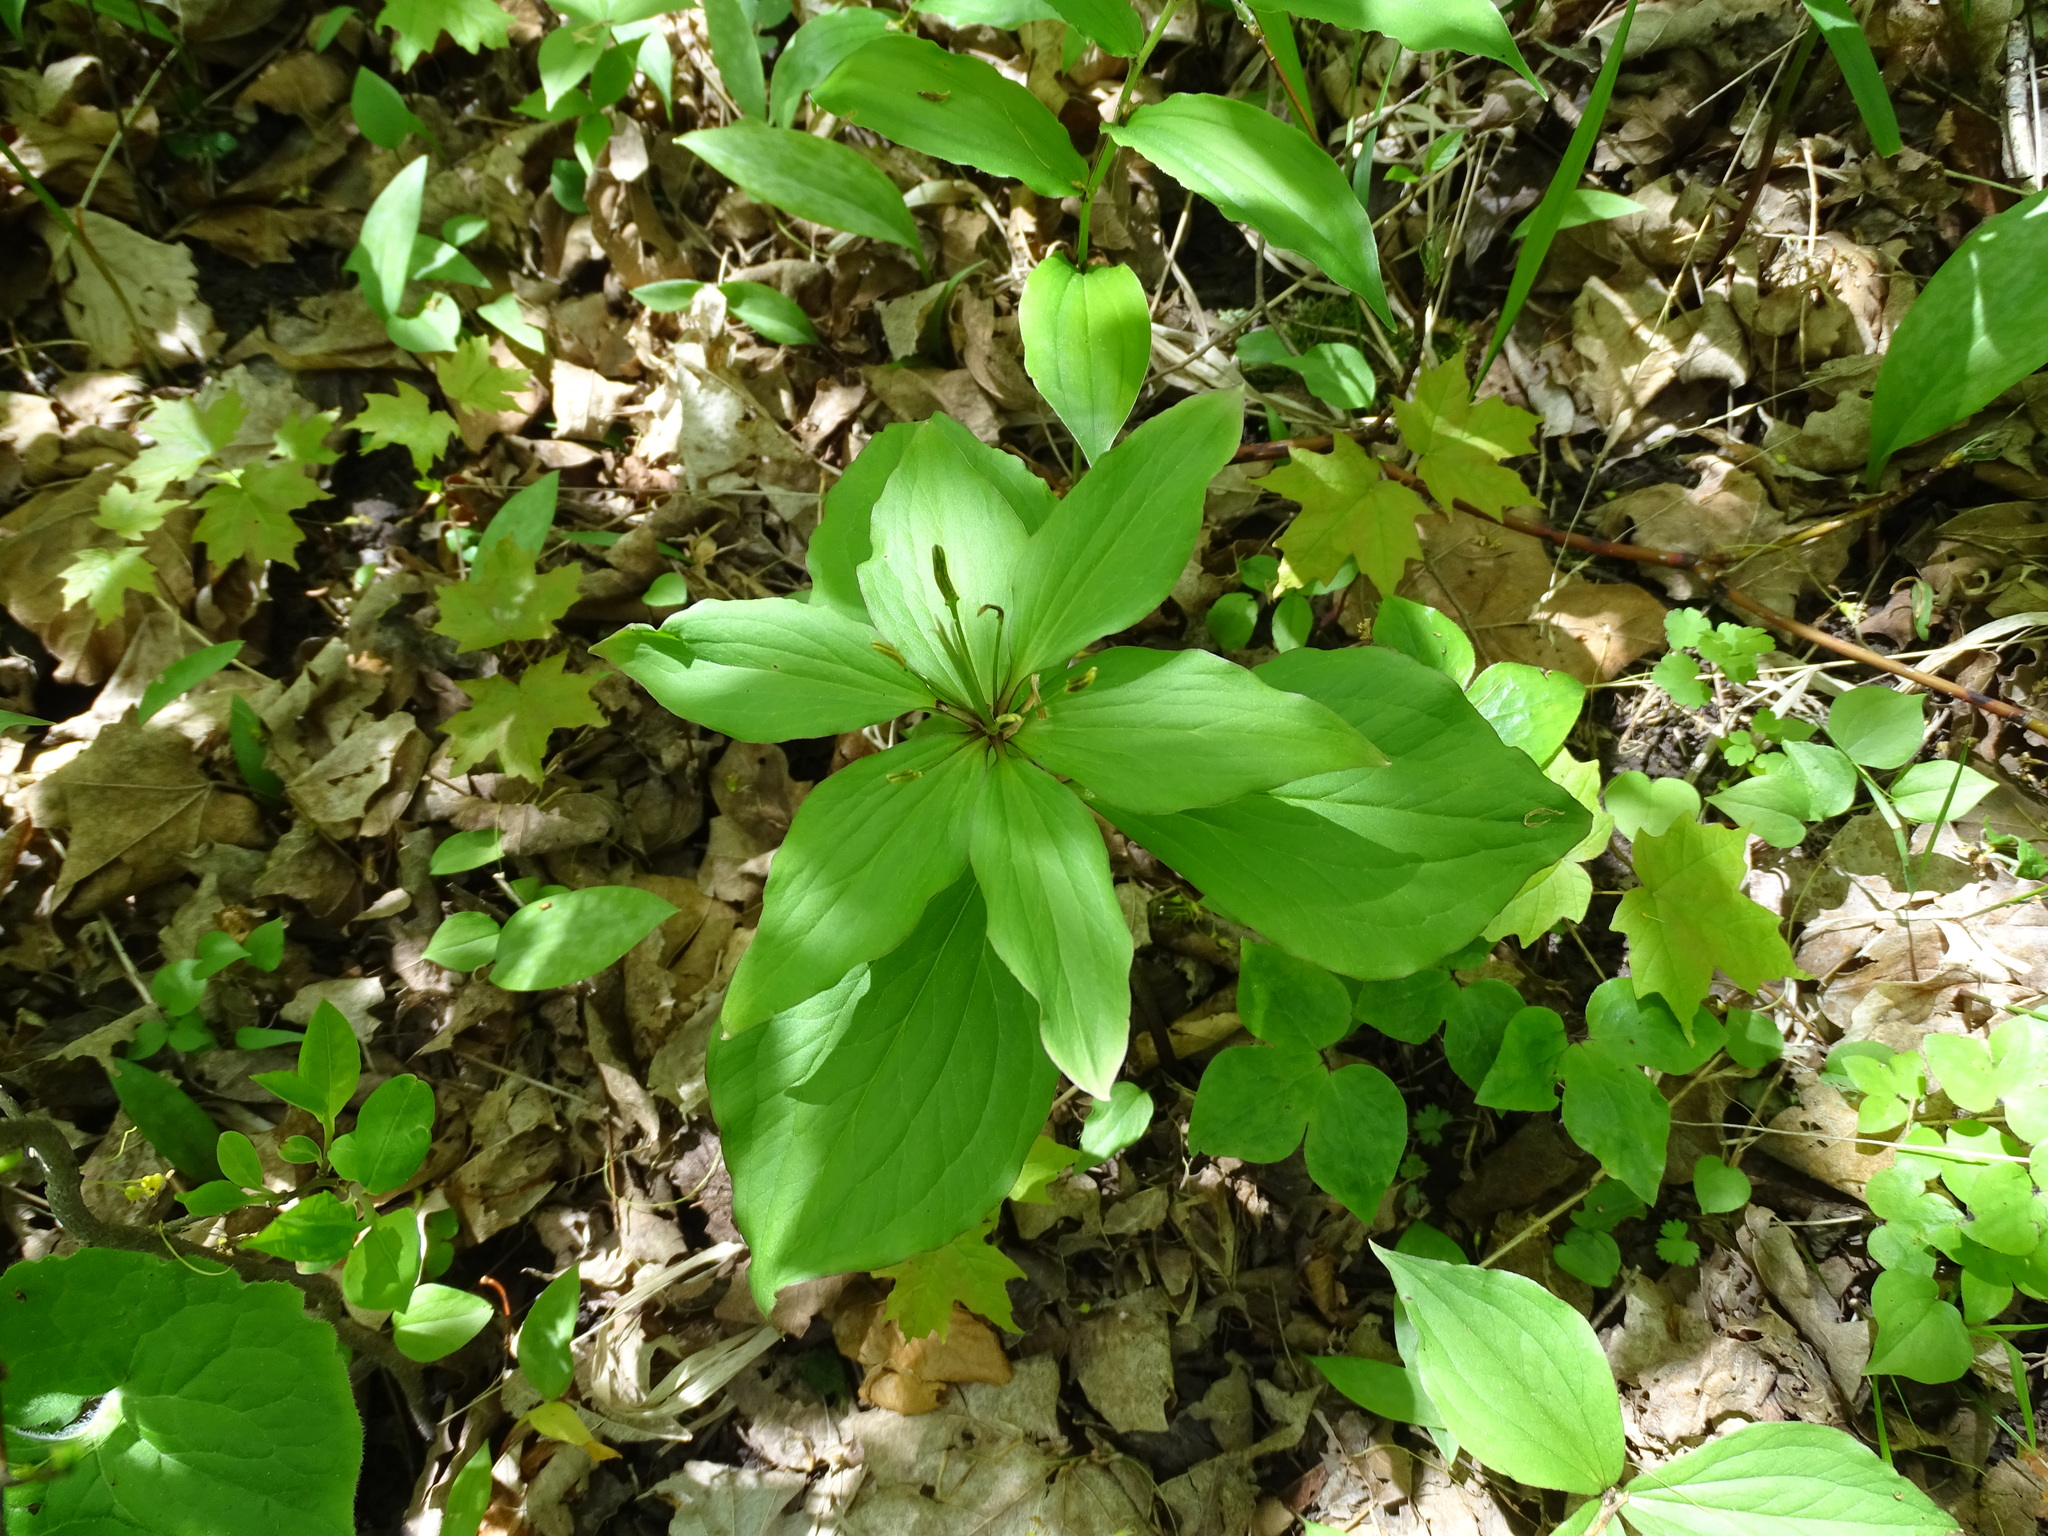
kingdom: Plantae
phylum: Tracheophyta
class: Liliopsida
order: Liliales
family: Melanthiaceae
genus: Trillium
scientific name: Trillium grandiflorum
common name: Great white trillium
